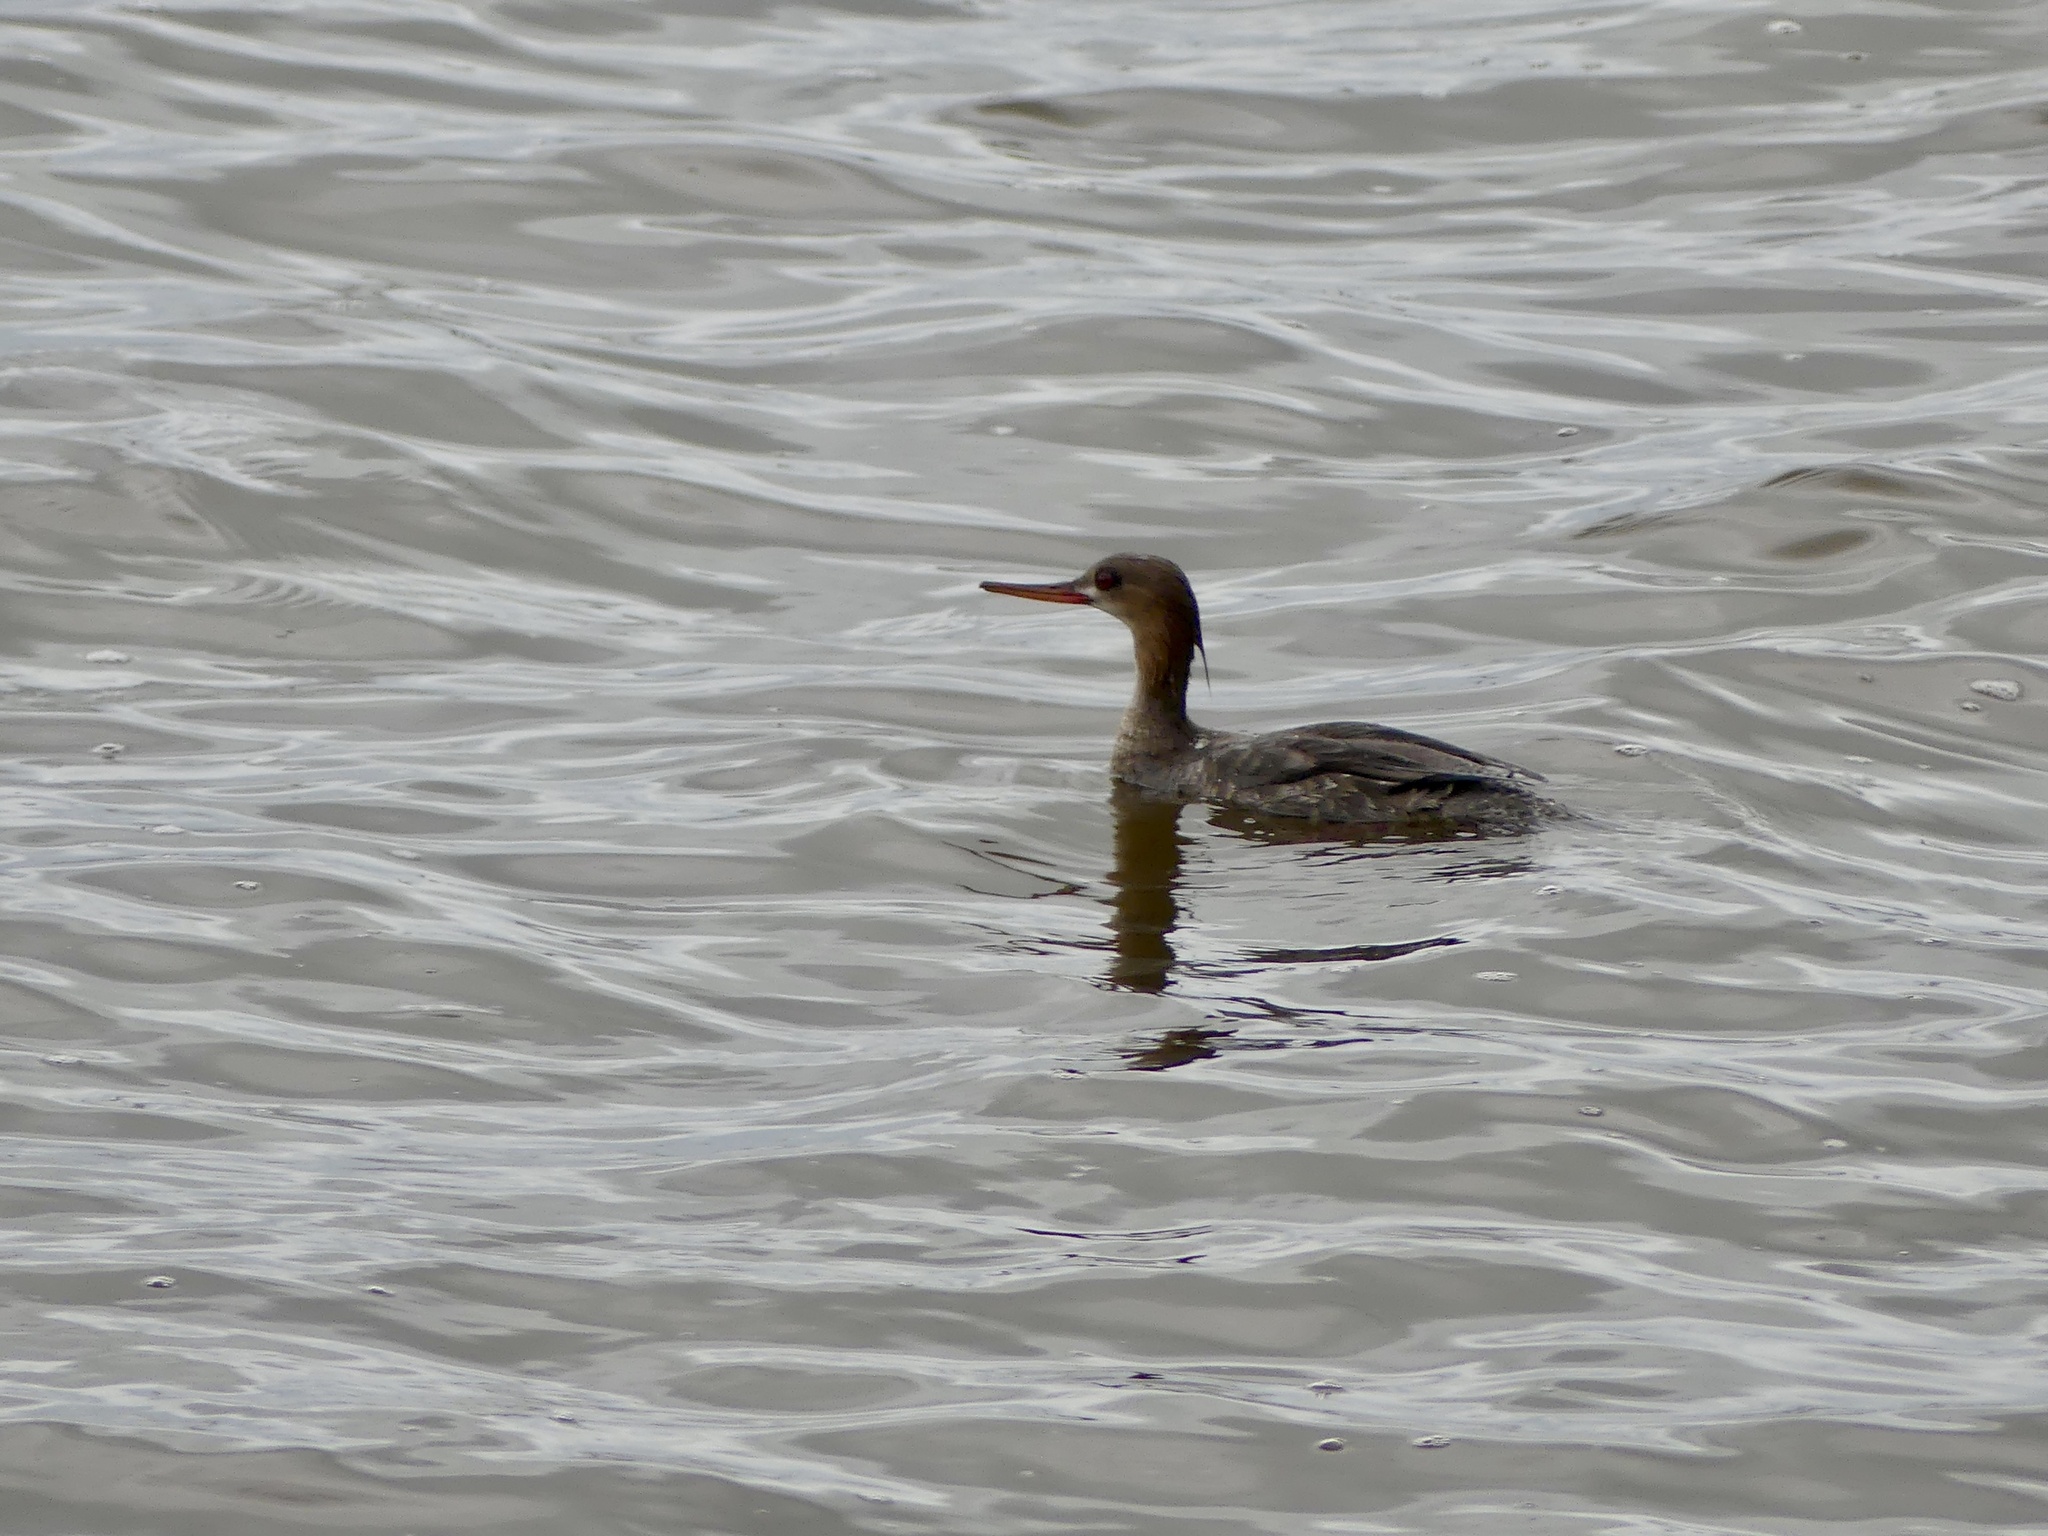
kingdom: Animalia
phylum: Chordata
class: Aves
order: Anseriformes
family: Anatidae
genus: Mergus
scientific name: Mergus serrator
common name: Red-breasted merganser
